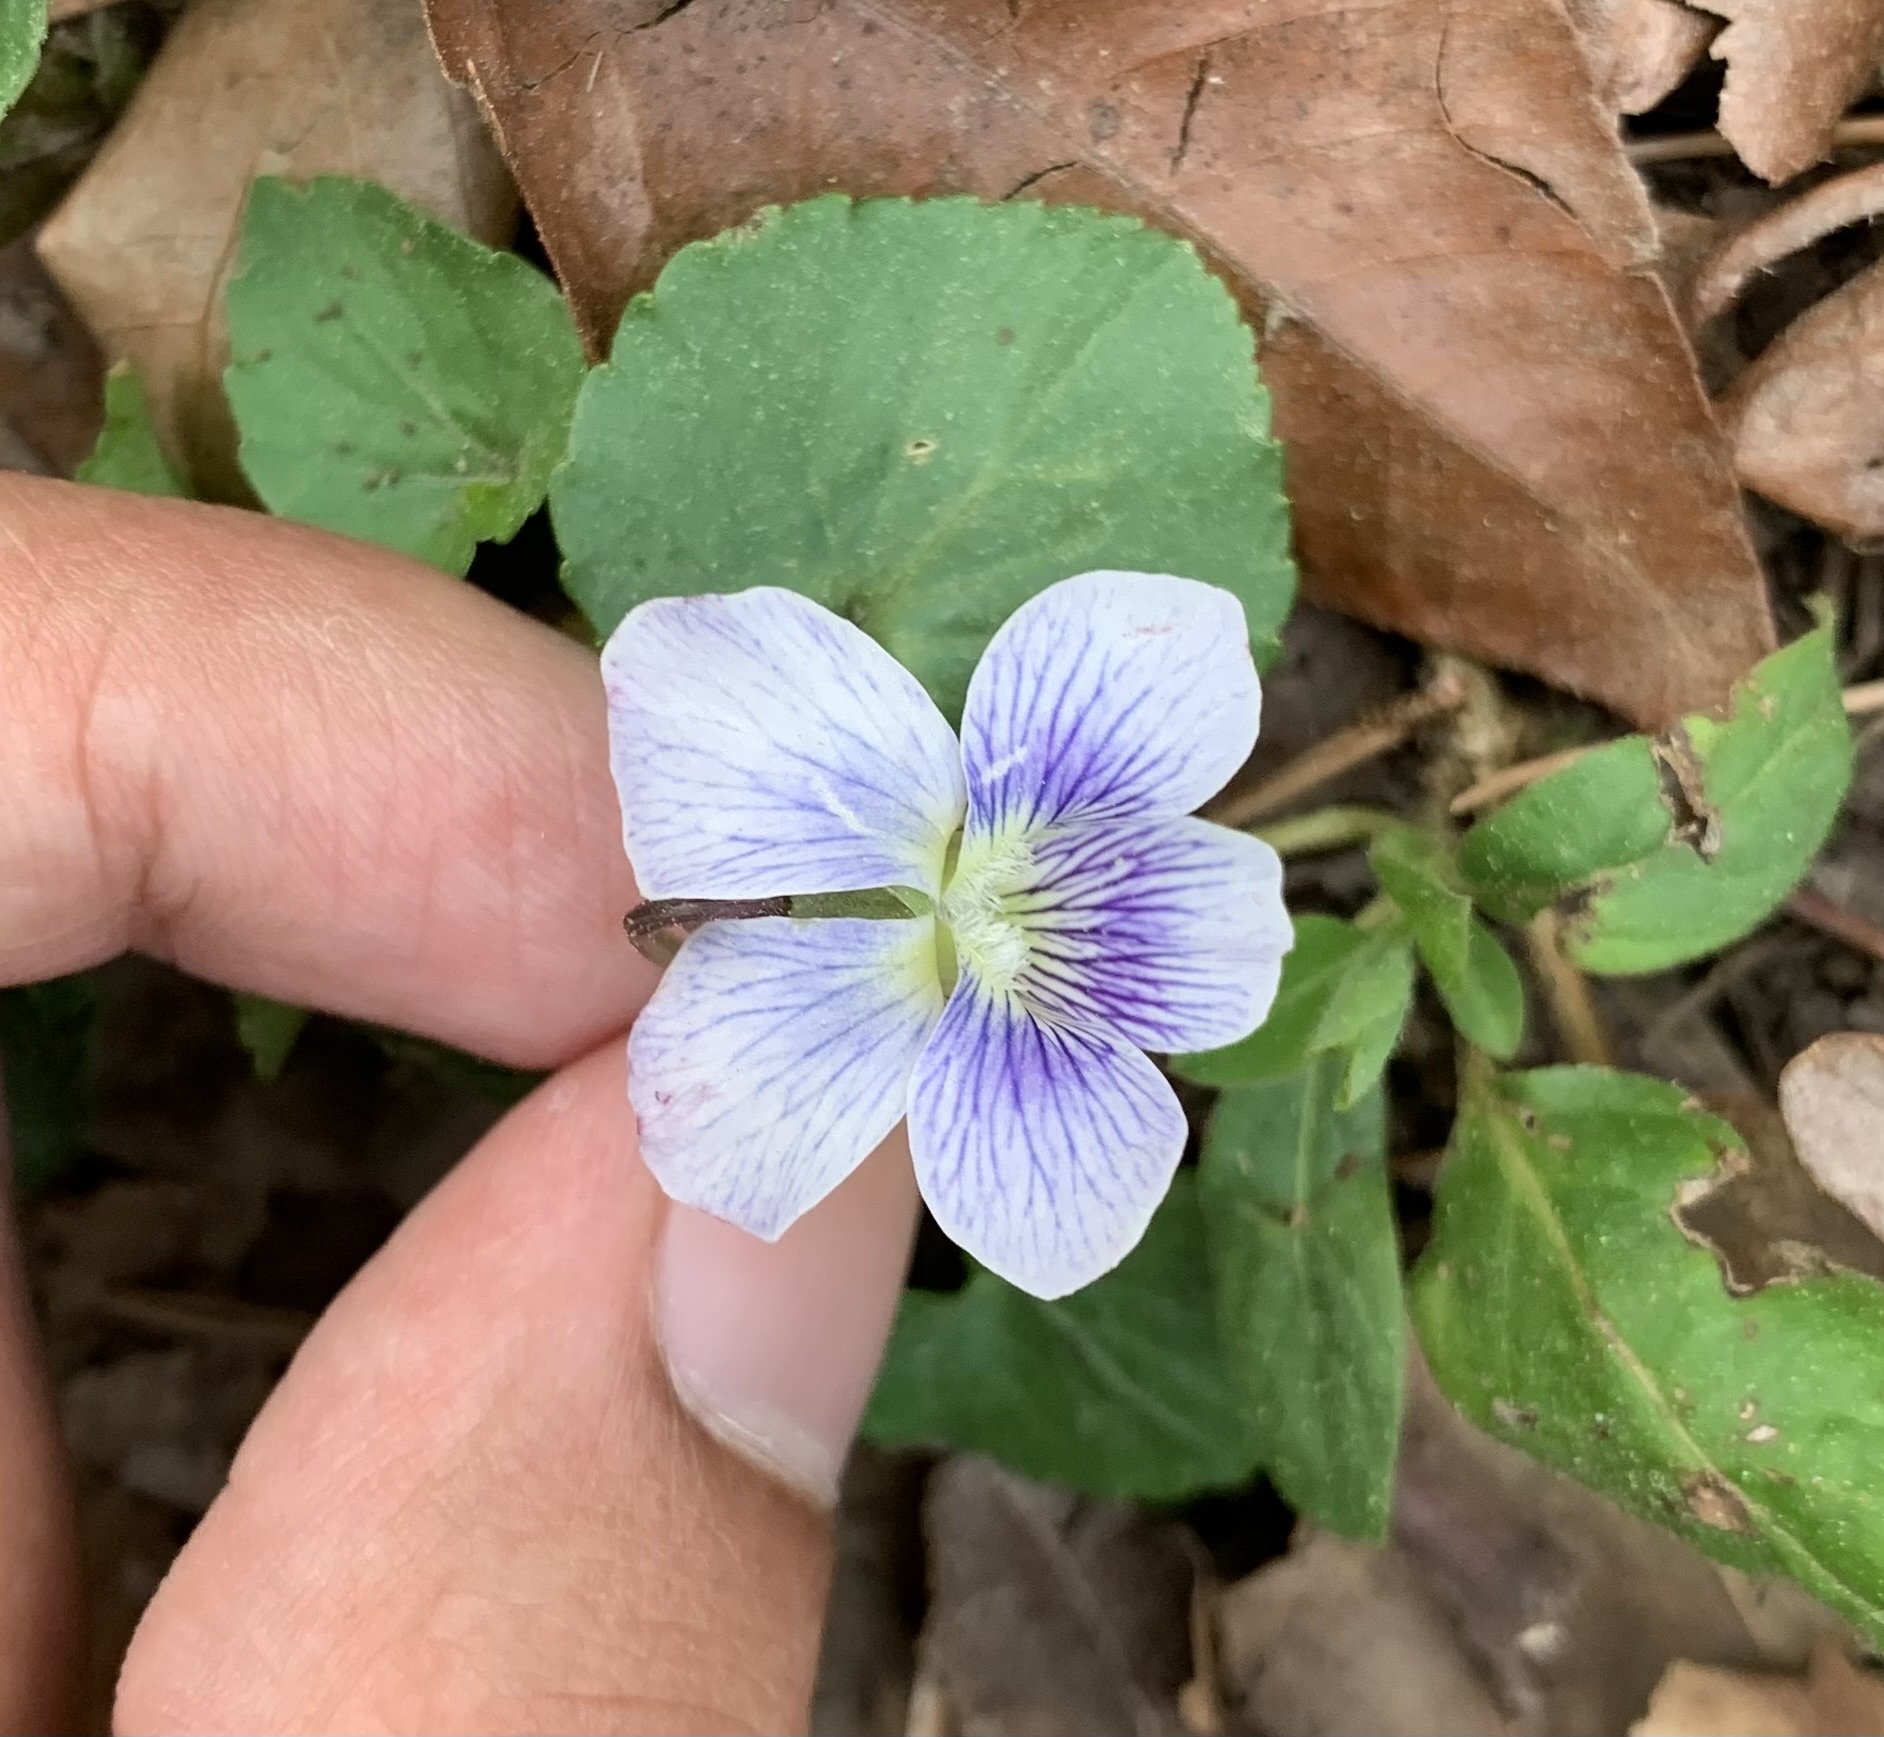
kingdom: Plantae
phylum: Tracheophyta
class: Magnoliopsida
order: Malpighiales
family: Violaceae
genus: Viola
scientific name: Viola sororia
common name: Dooryard violet
